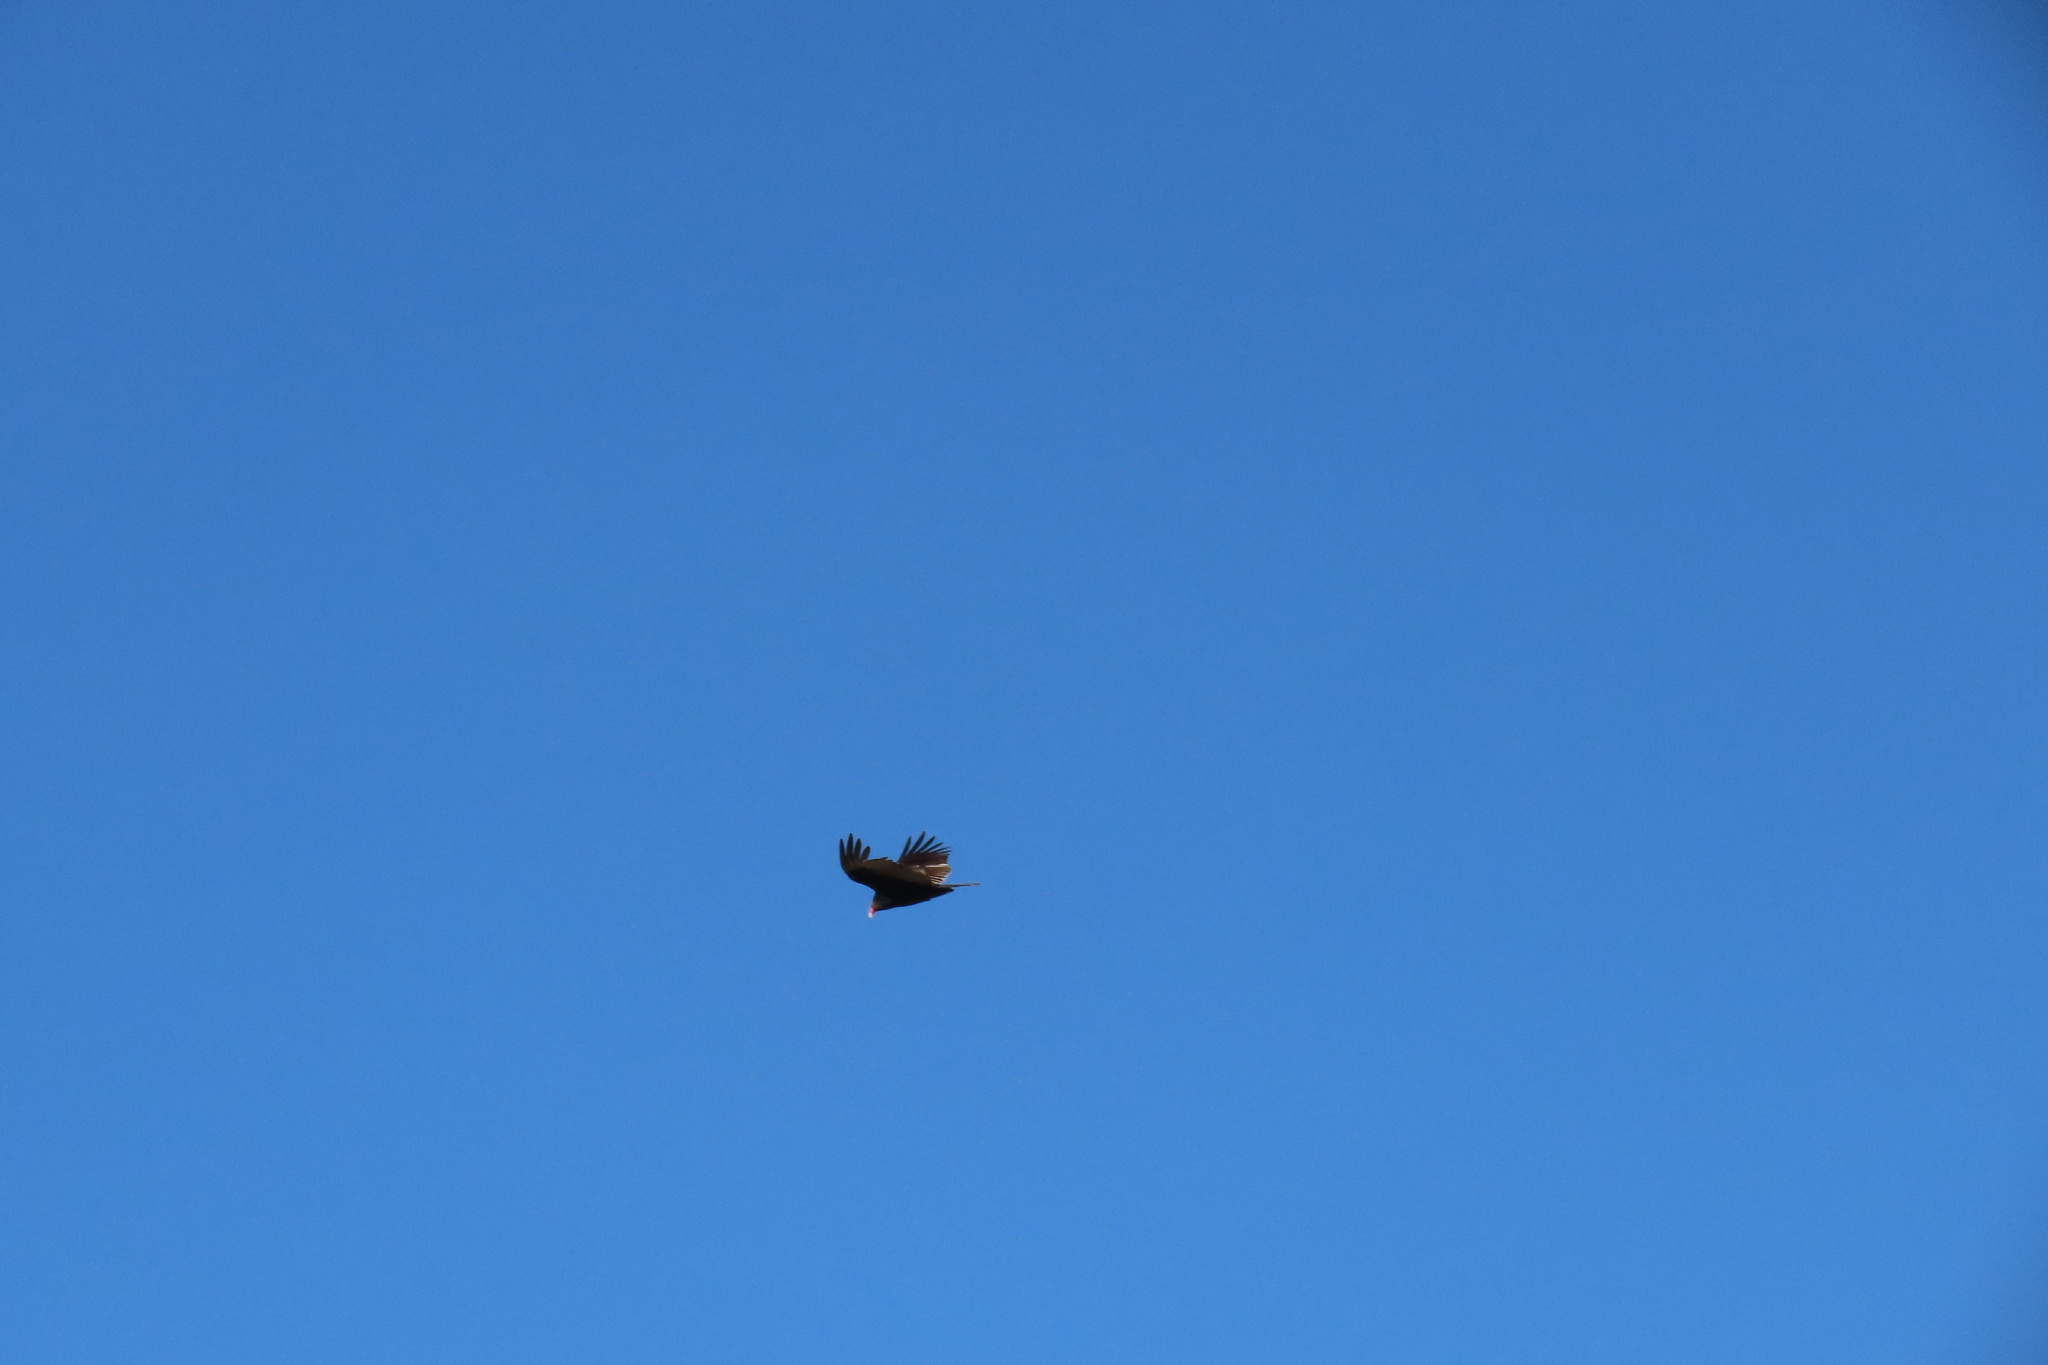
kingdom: Animalia
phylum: Chordata
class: Aves
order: Accipitriformes
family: Cathartidae
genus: Cathartes
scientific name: Cathartes aura
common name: Turkey vulture
